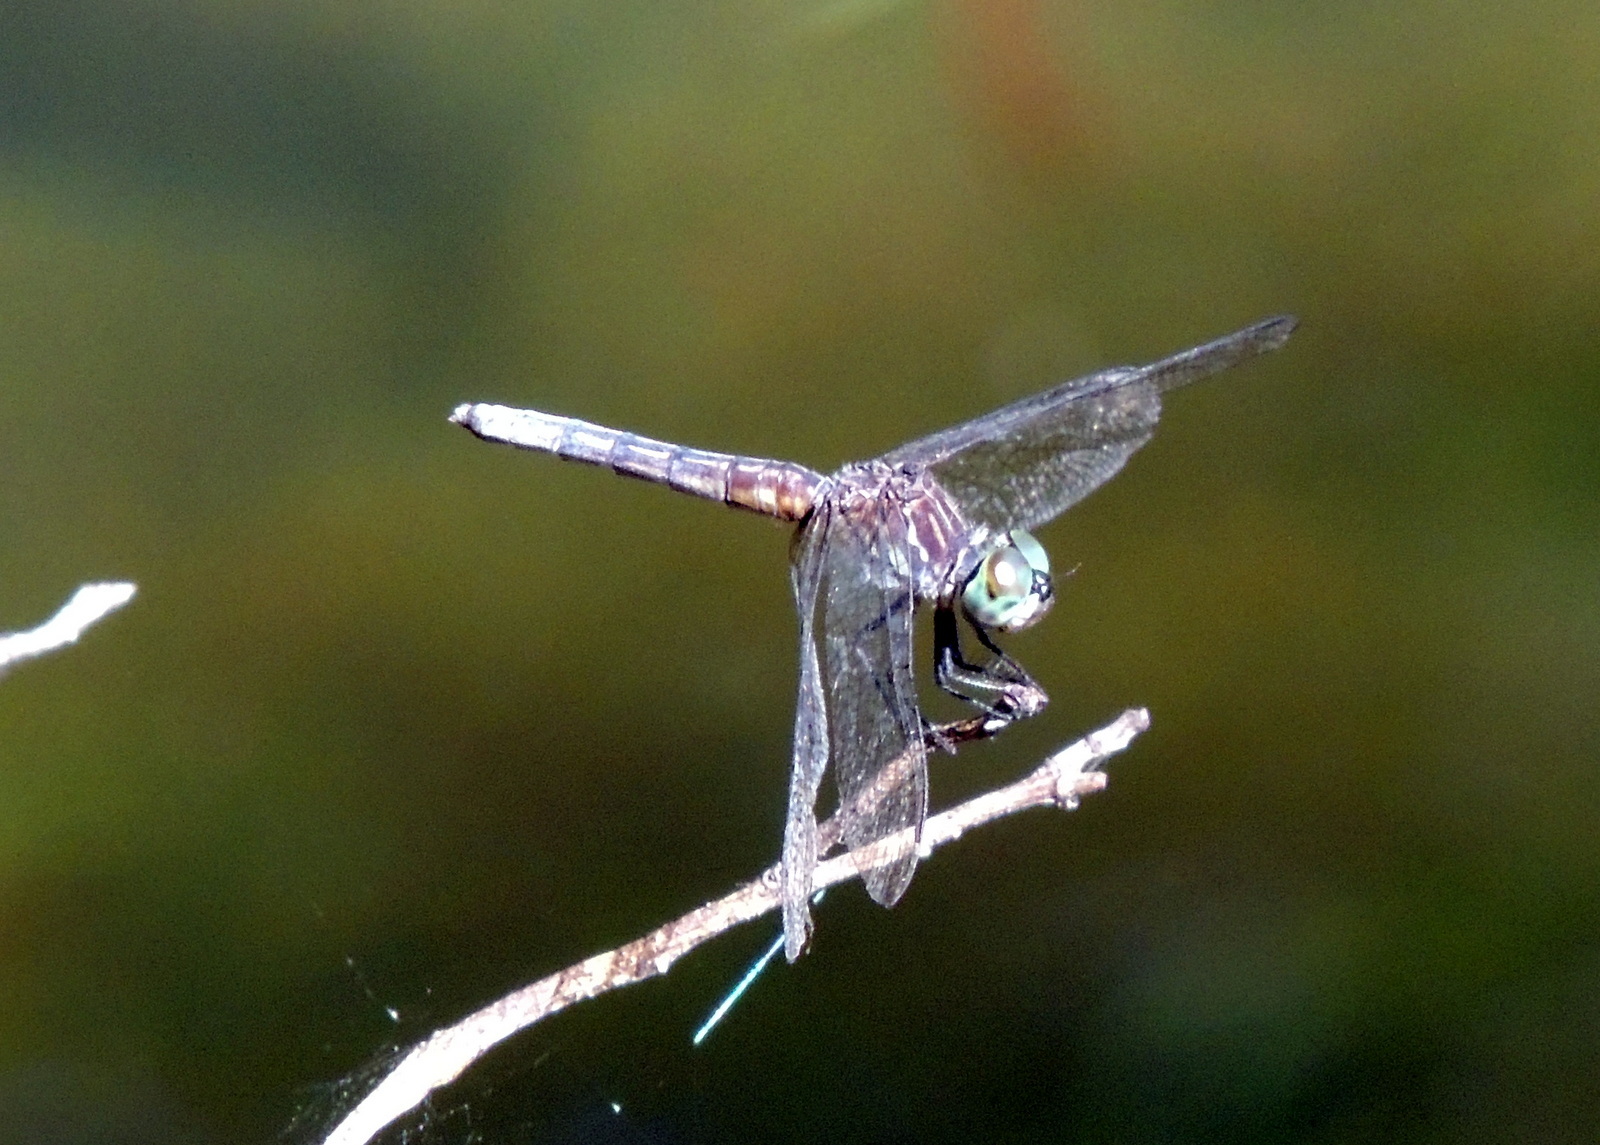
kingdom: Animalia
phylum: Arthropoda
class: Insecta
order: Odonata
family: Libellulidae
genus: Pachydiplax
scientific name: Pachydiplax longipennis
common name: Blue dasher
